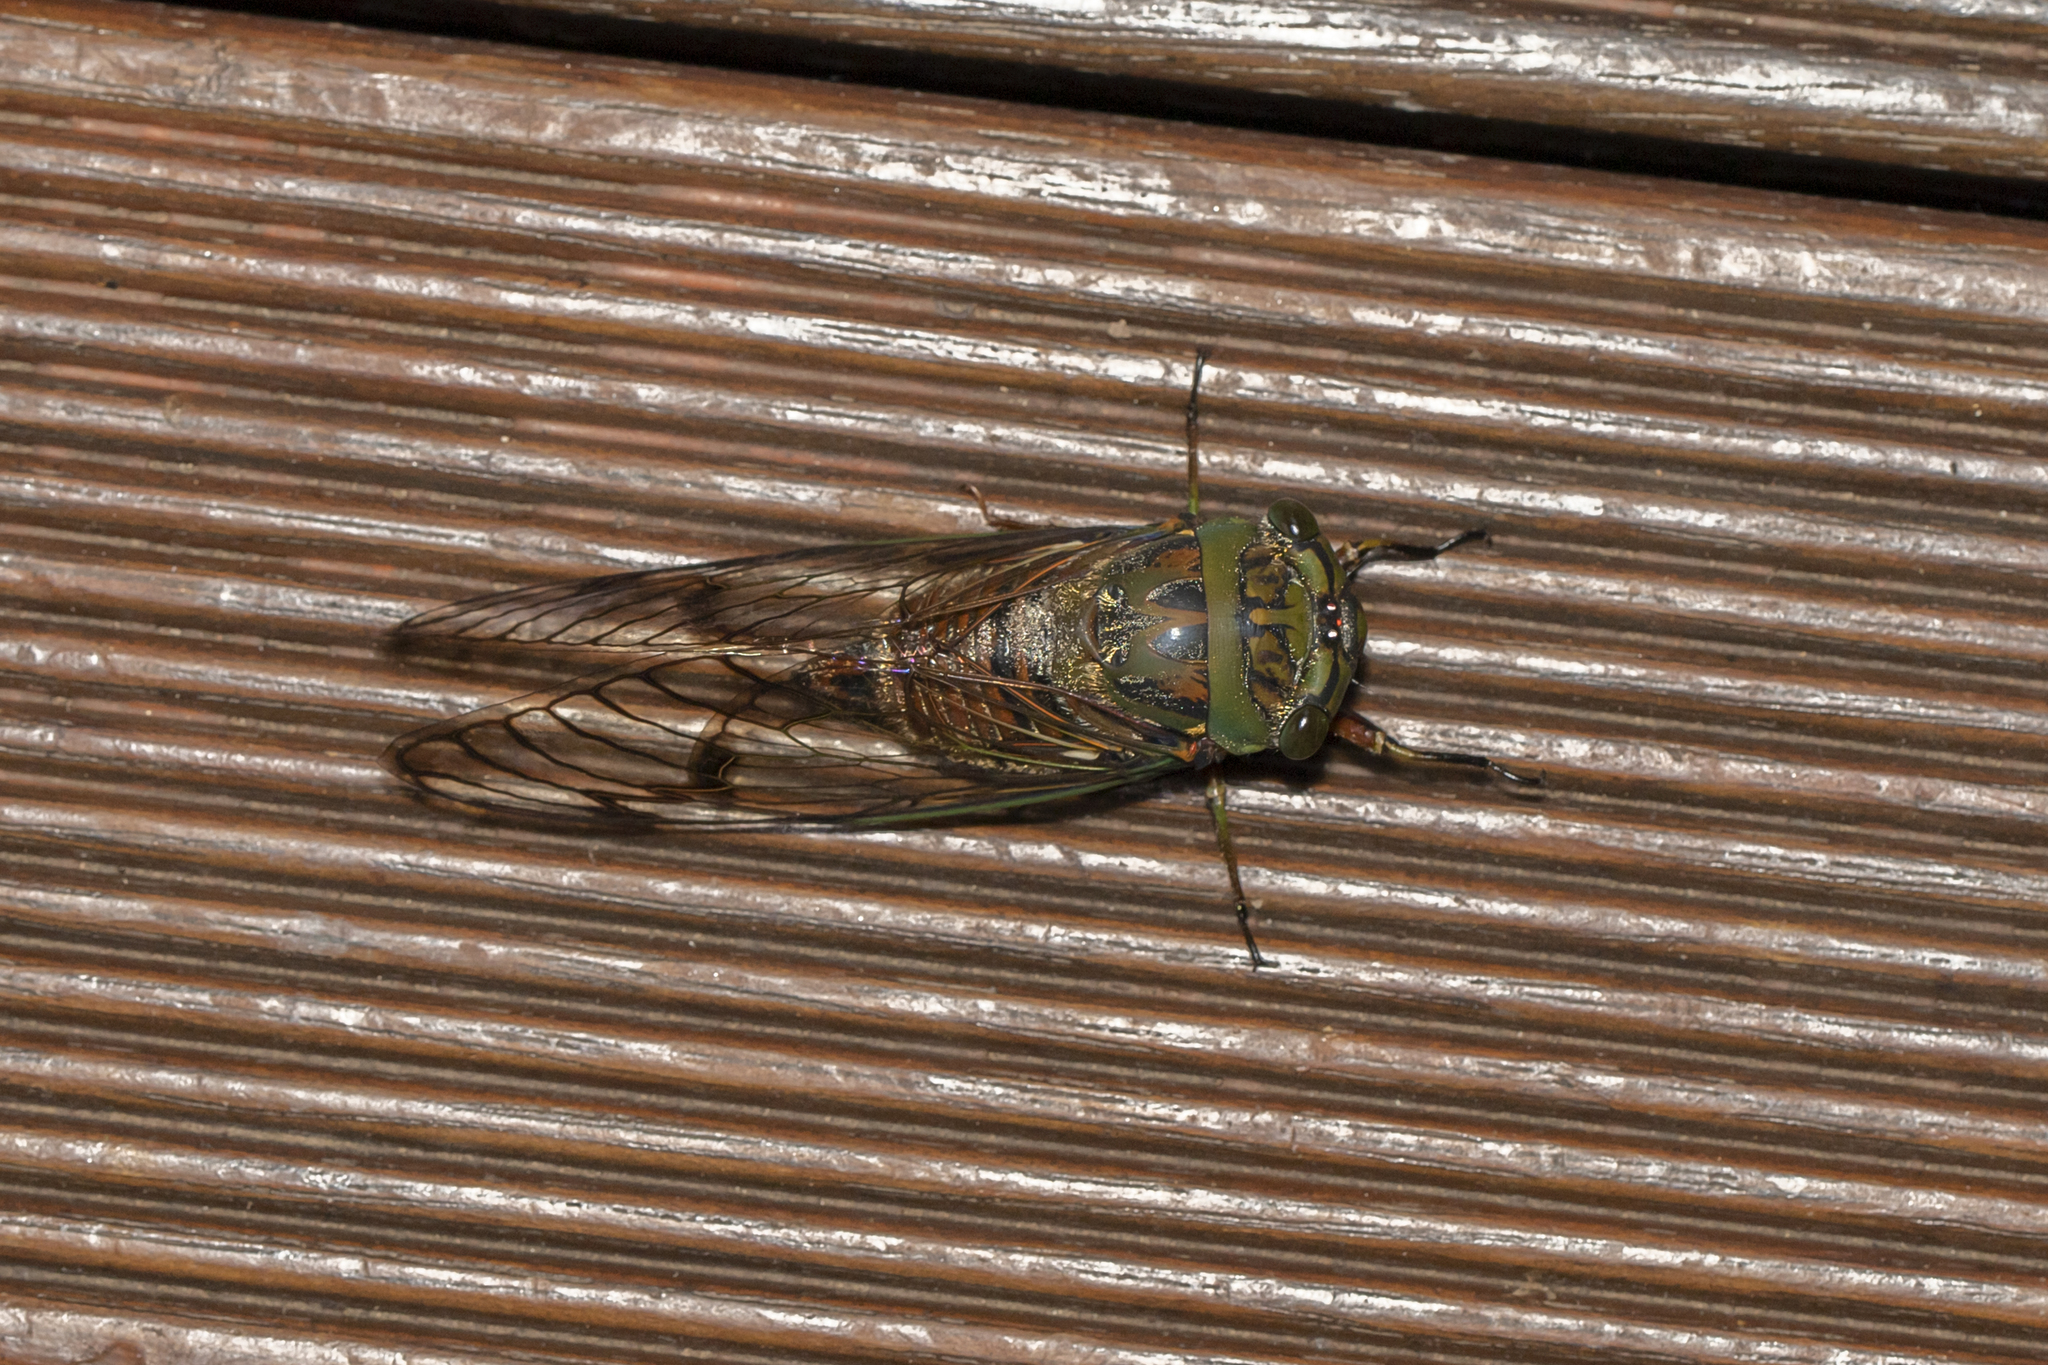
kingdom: Animalia
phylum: Arthropoda
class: Insecta
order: Hemiptera
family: Cicadidae
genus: Psaltoda
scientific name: Psaltoda magnifica
